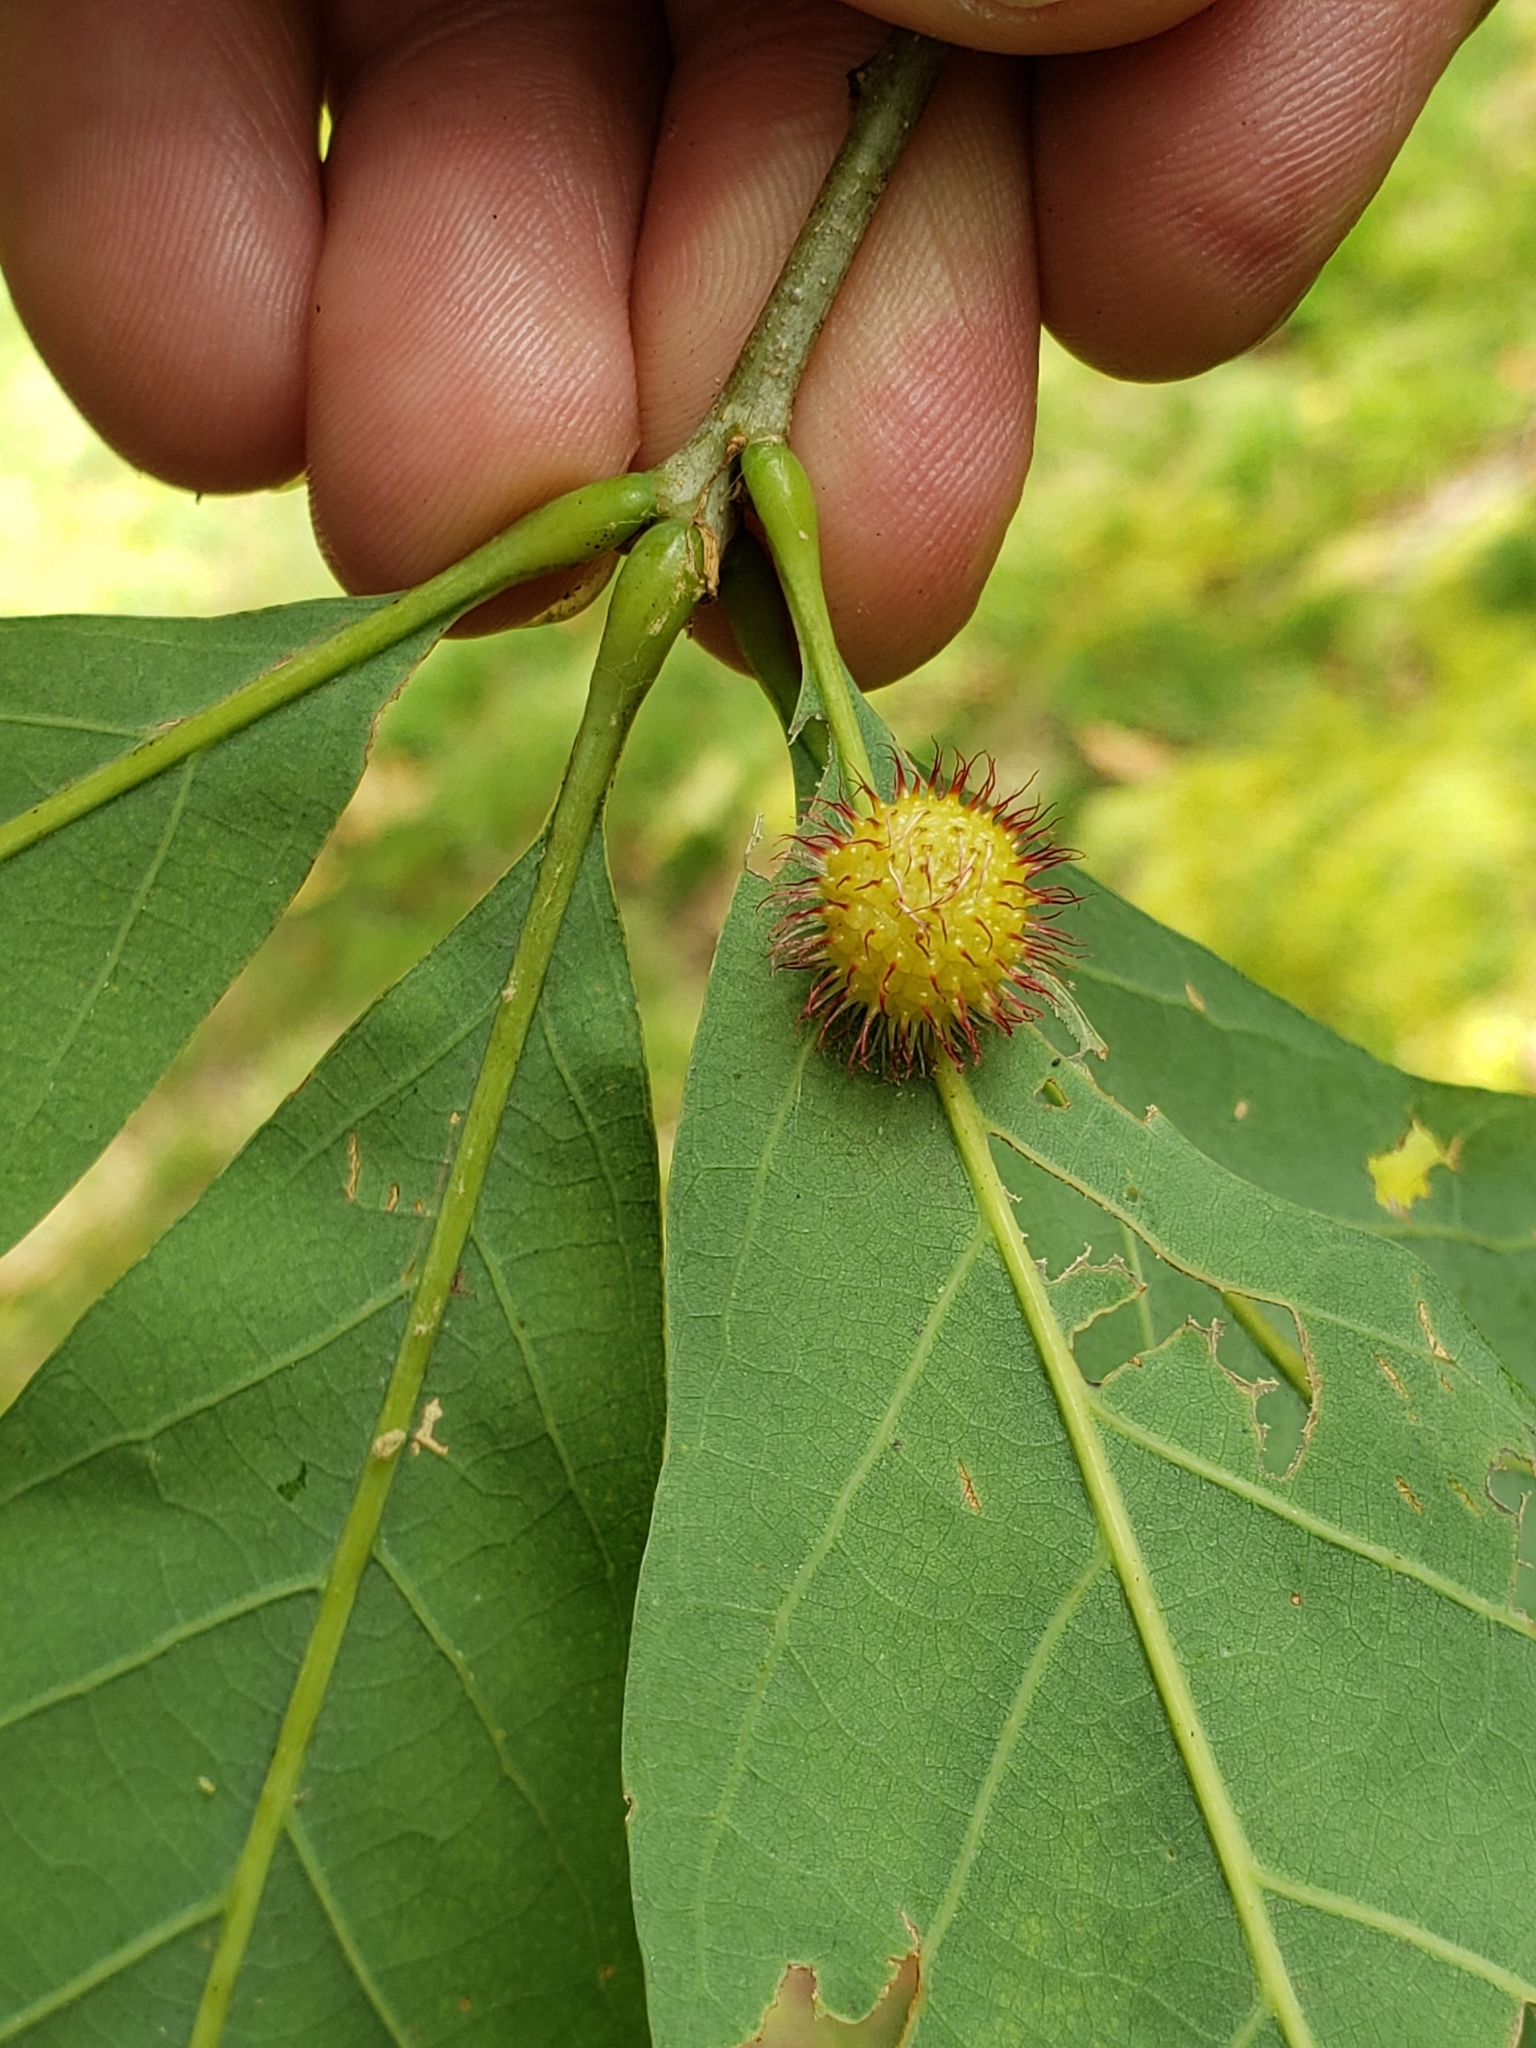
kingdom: Animalia
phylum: Arthropoda
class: Insecta
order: Hymenoptera
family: Cynipidae
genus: Acraspis
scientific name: Acraspis erinacei
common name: Hedgehog gall wasp
